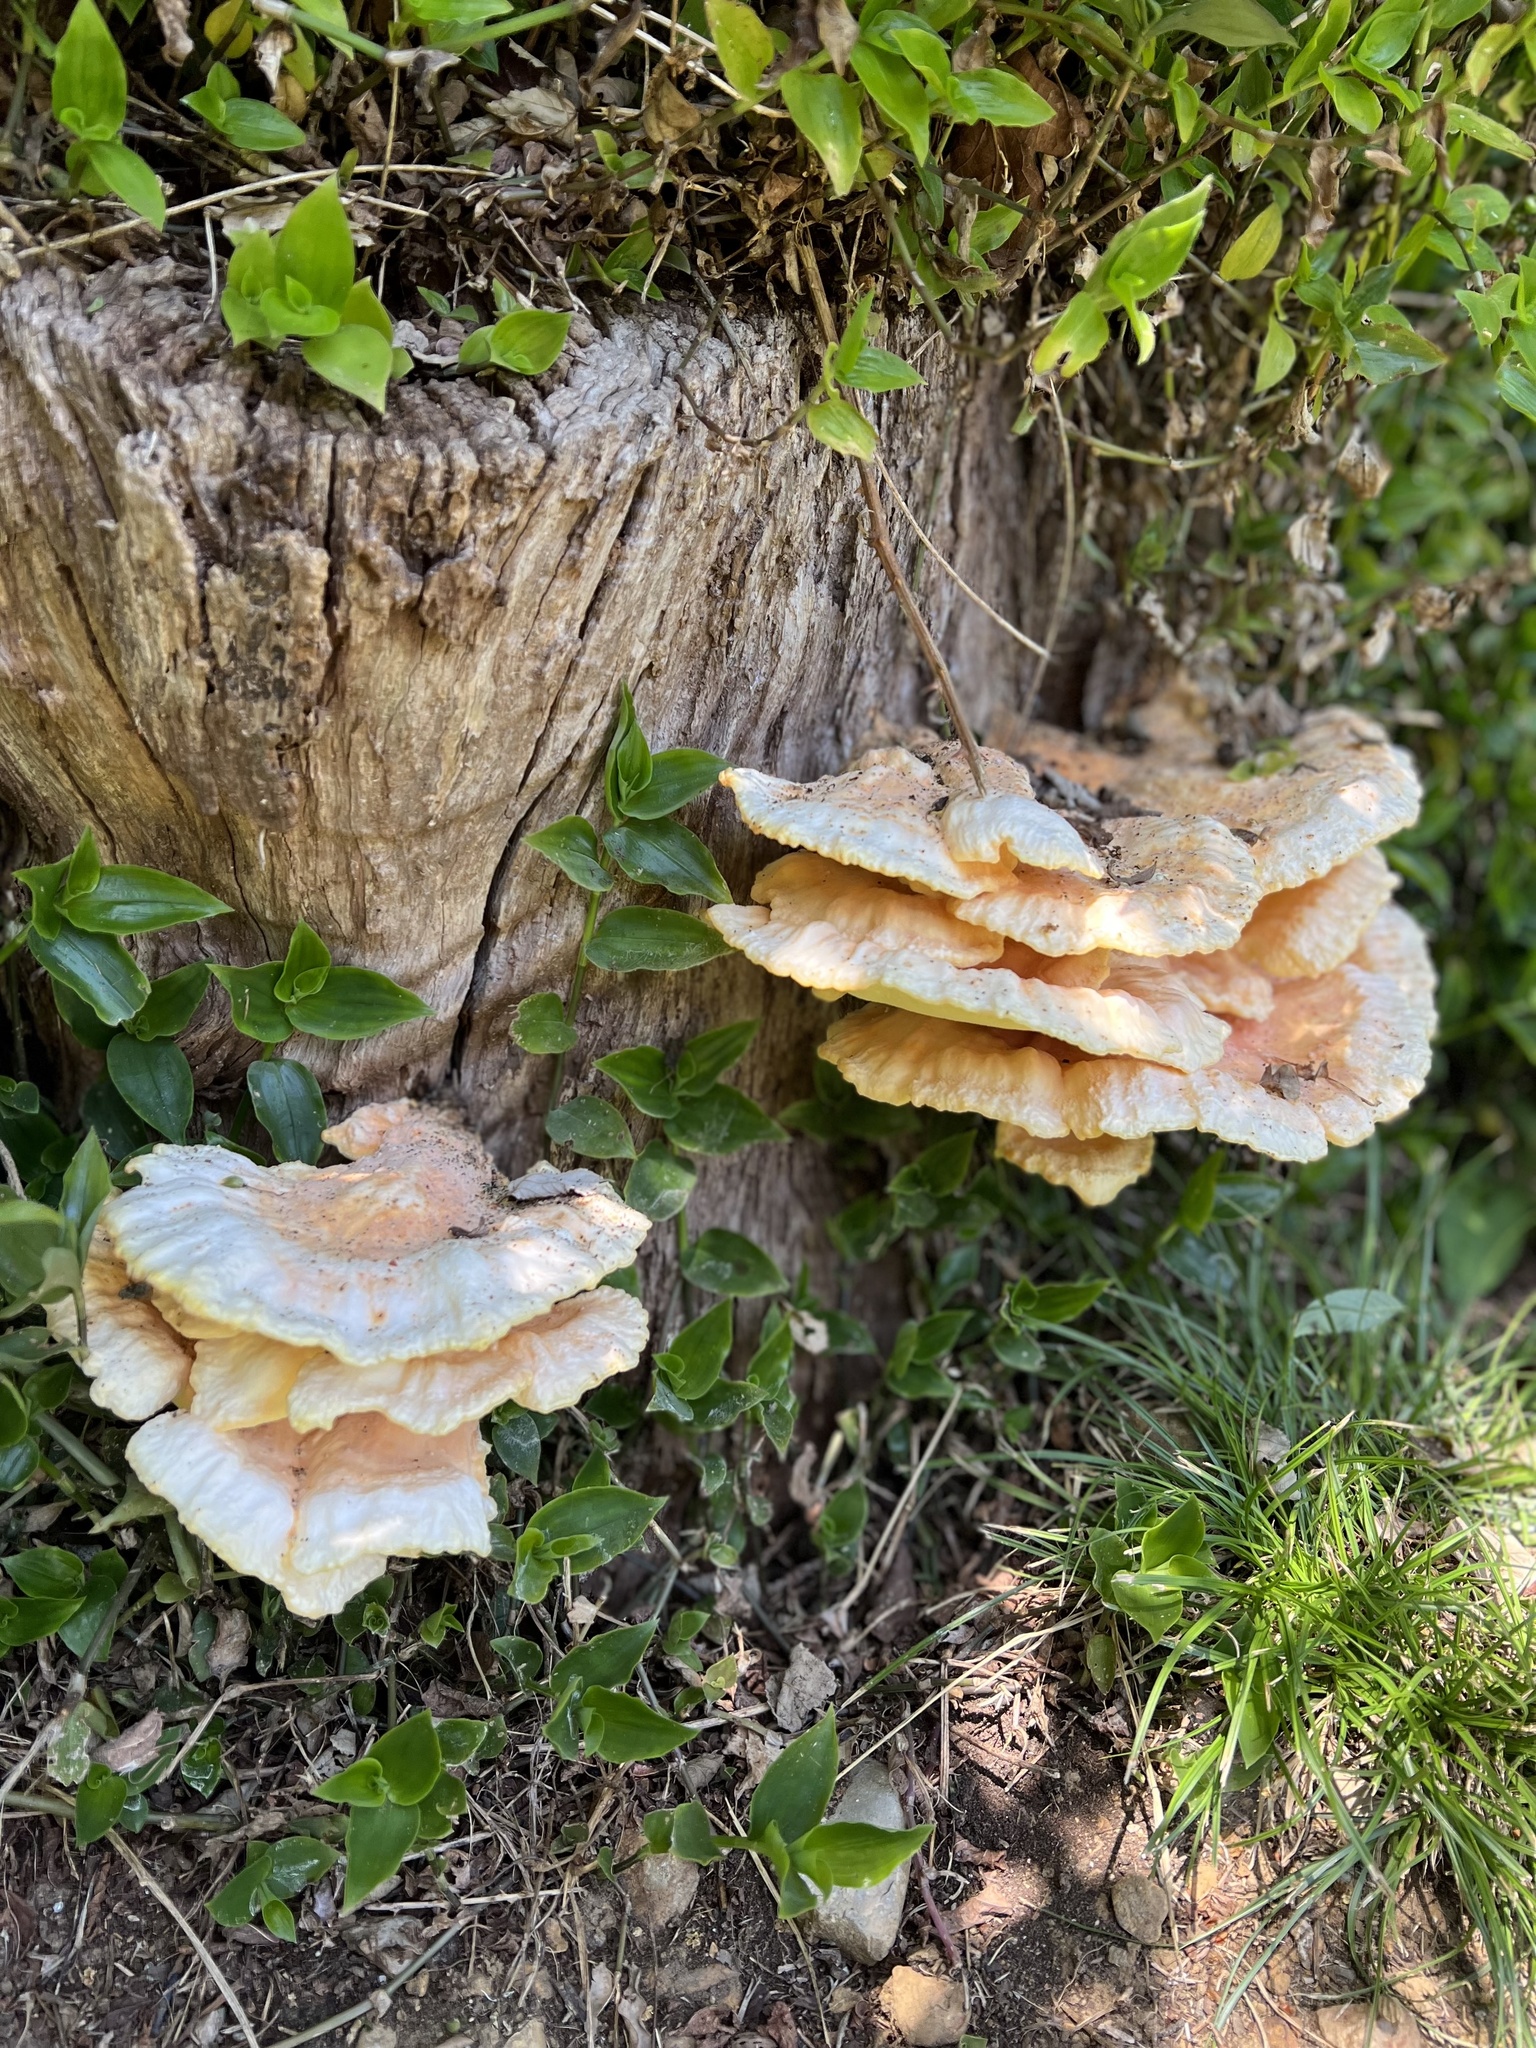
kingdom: Fungi
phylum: Basidiomycota
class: Agaricomycetes
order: Polyporales
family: Laetiporaceae
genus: Laetiporus
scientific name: Laetiporus sulphureus
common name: Chicken of the woods
